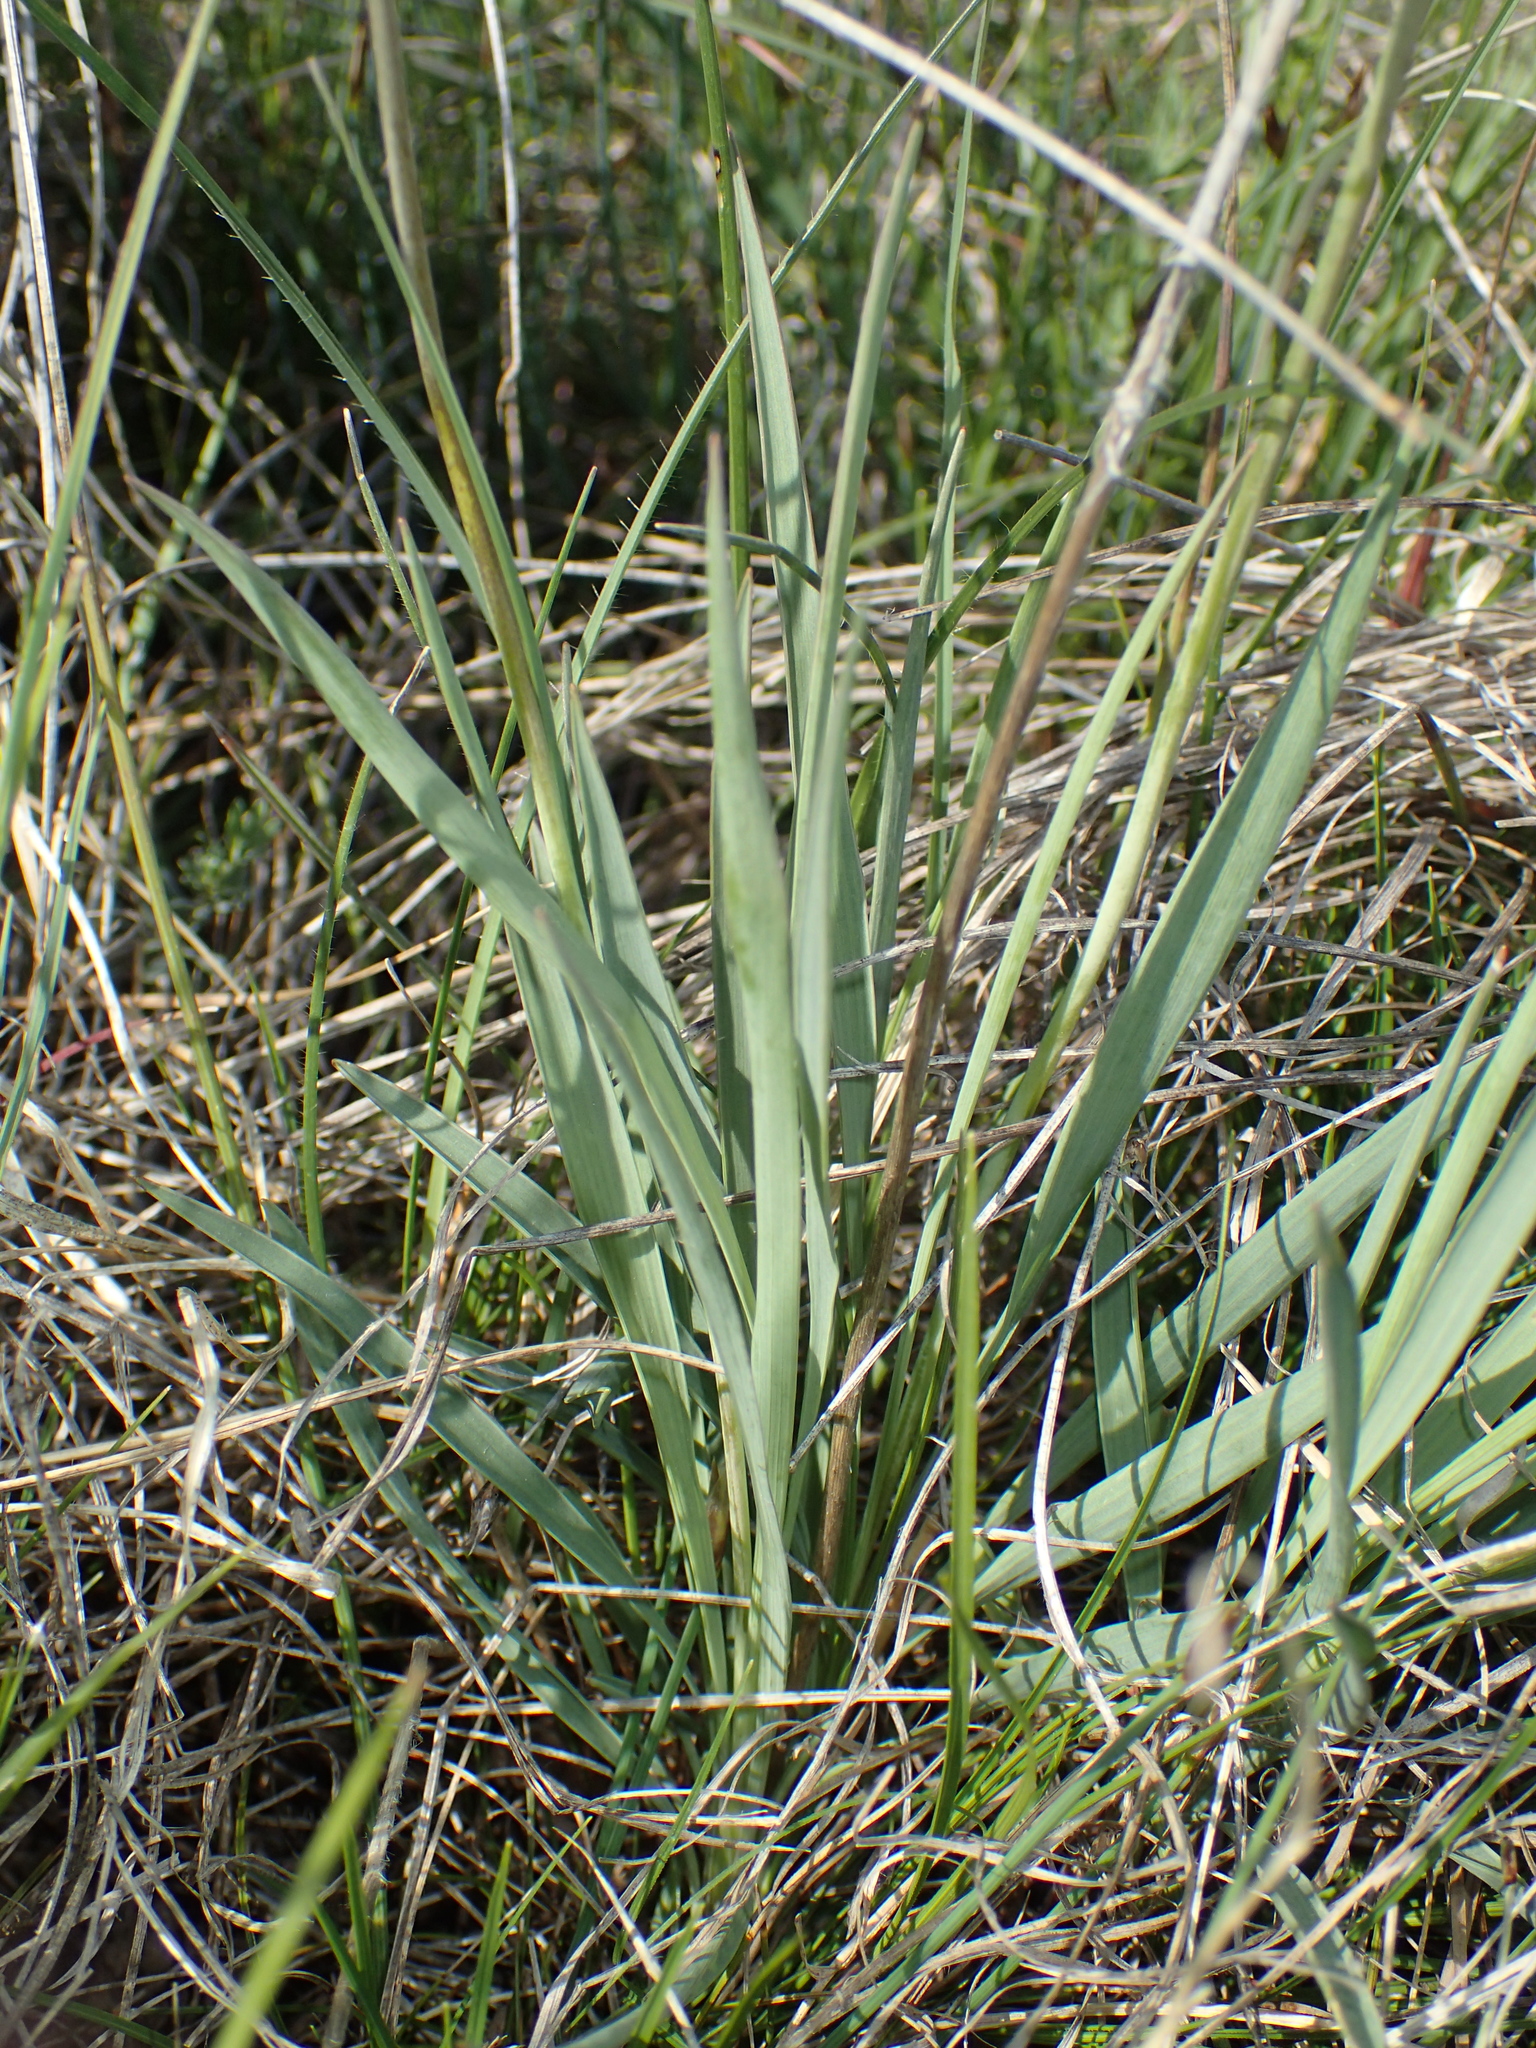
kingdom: Plantae
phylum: Tracheophyta
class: Magnoliopsida
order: Ranunculales
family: Ranunculaceae
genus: Ranunculus
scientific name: Ranunculus gramineus
